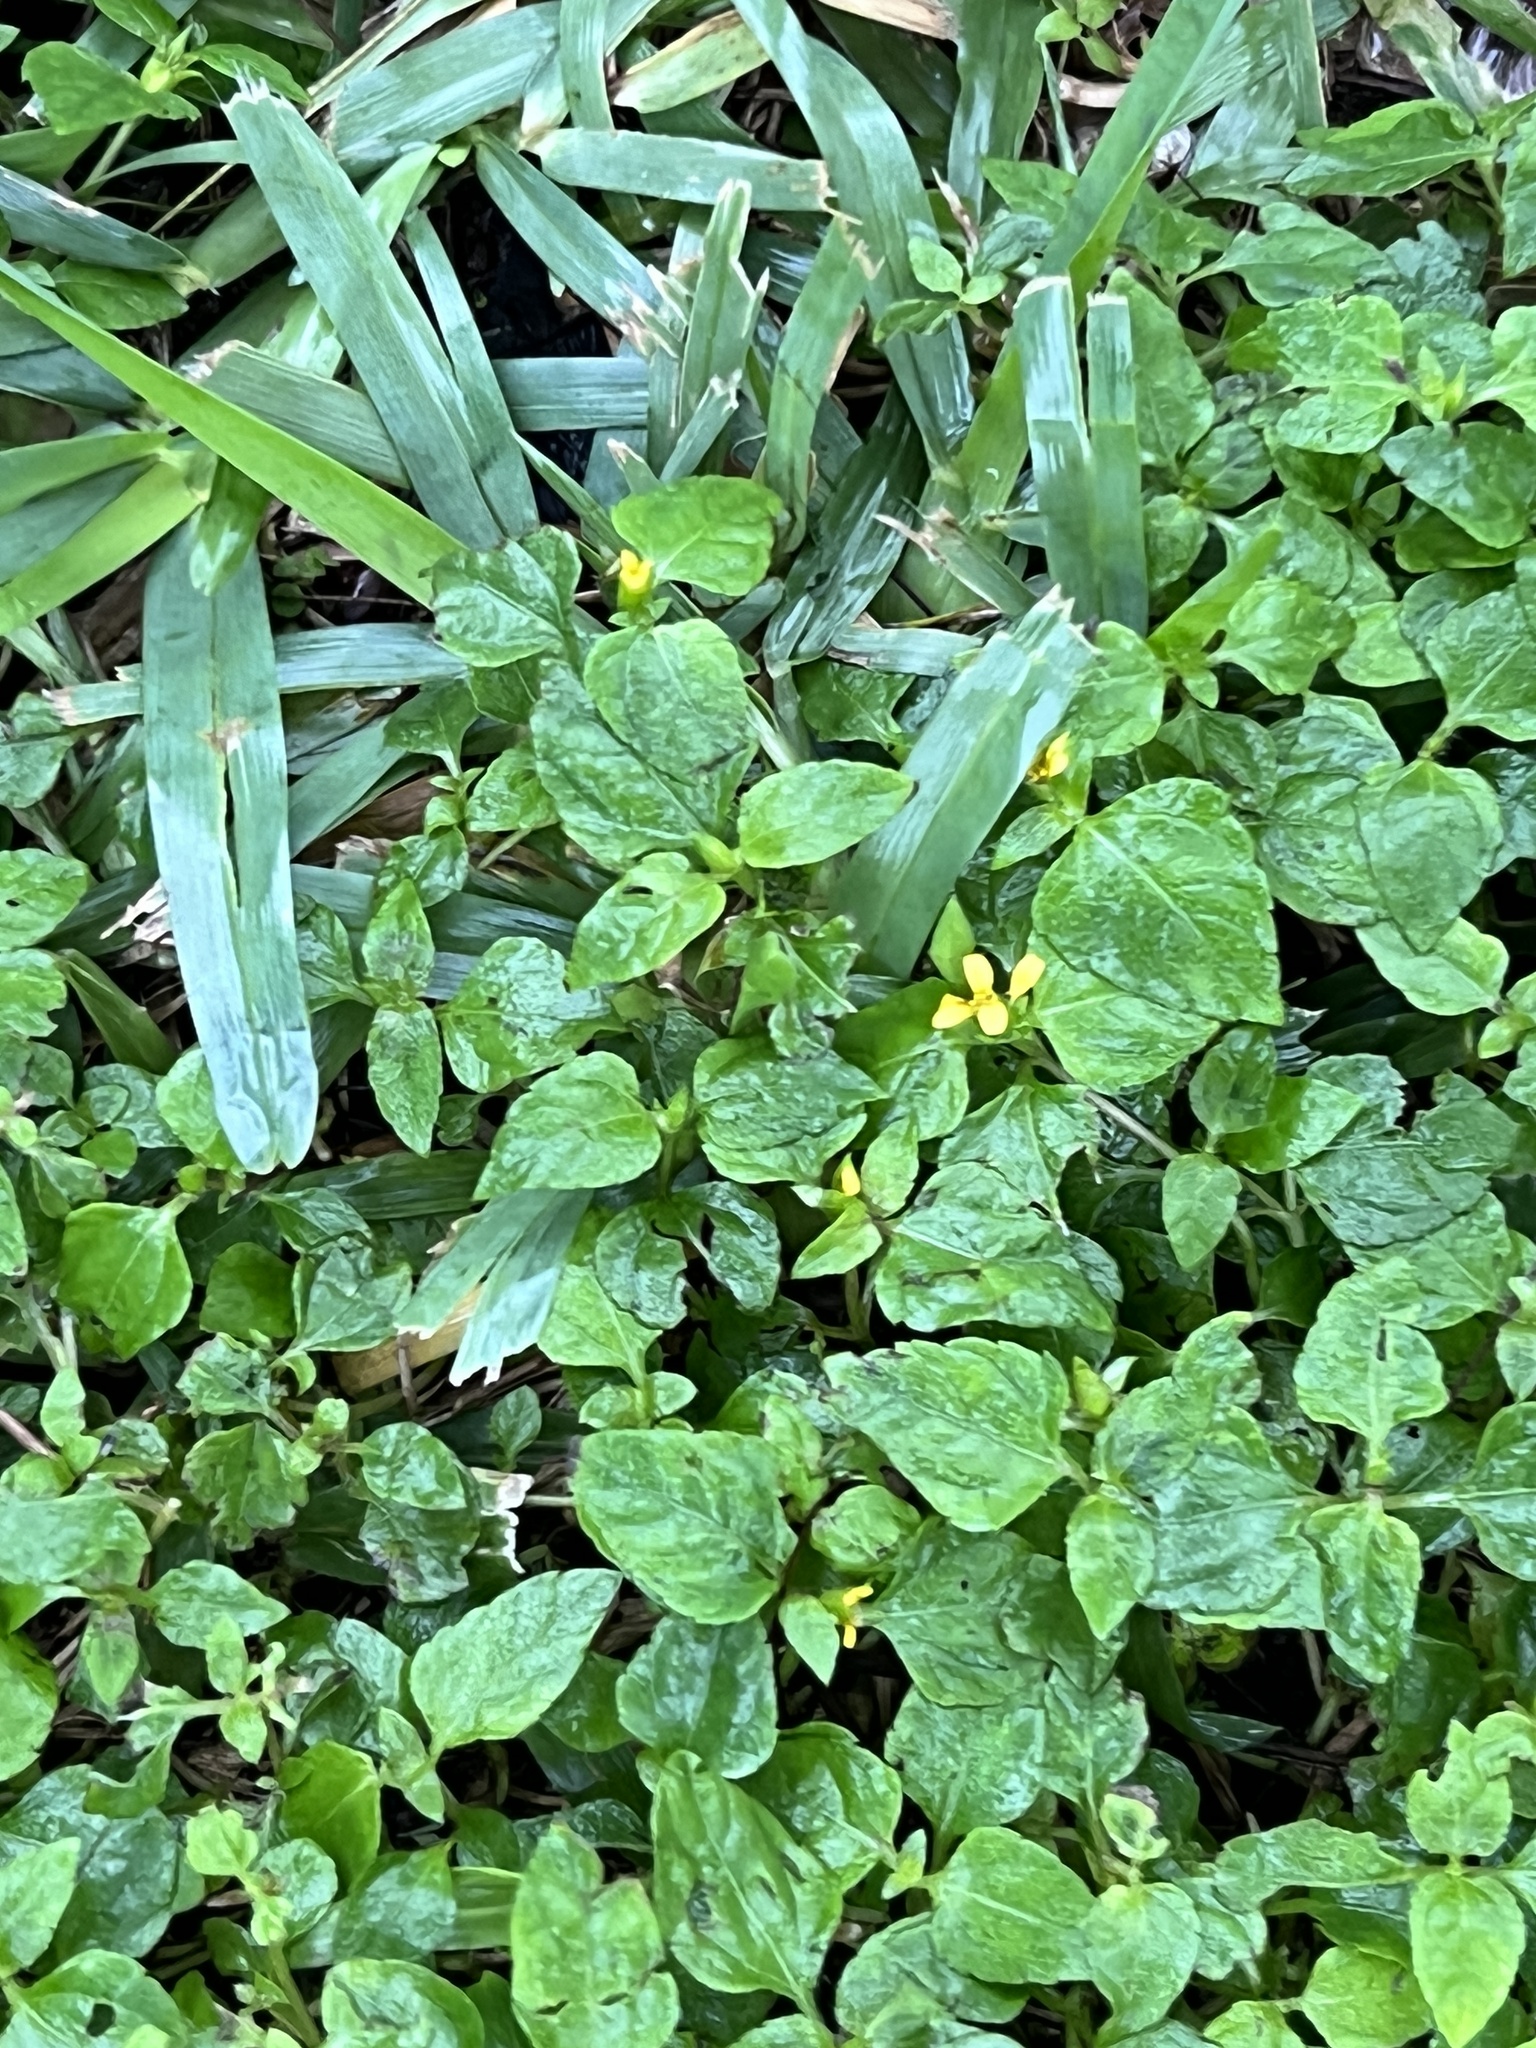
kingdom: Plantae
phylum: Tracheophyta
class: Magnoliopsida
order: Asterales
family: Asteraceae
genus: Calyptocarpus
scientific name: Calyptocarpus vialis
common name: Straggler daisy
